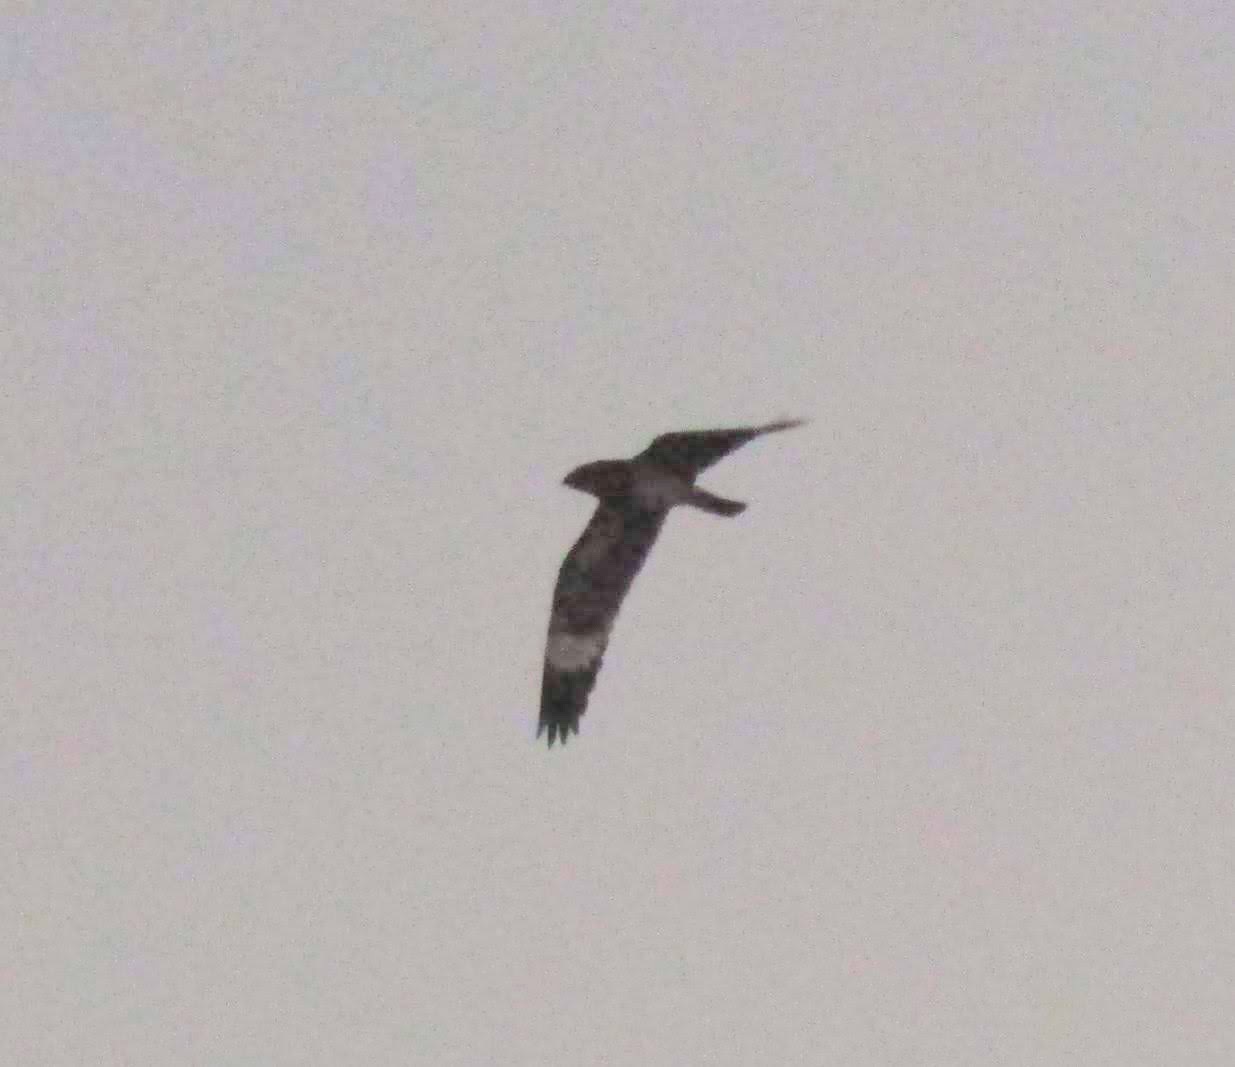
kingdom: Animalia
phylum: Chordata
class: Aves
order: Caprimulgiformes
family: Caprimulgidae
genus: Chordeiles
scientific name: Chordeiles nacunda
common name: Nacunda nighthawk
